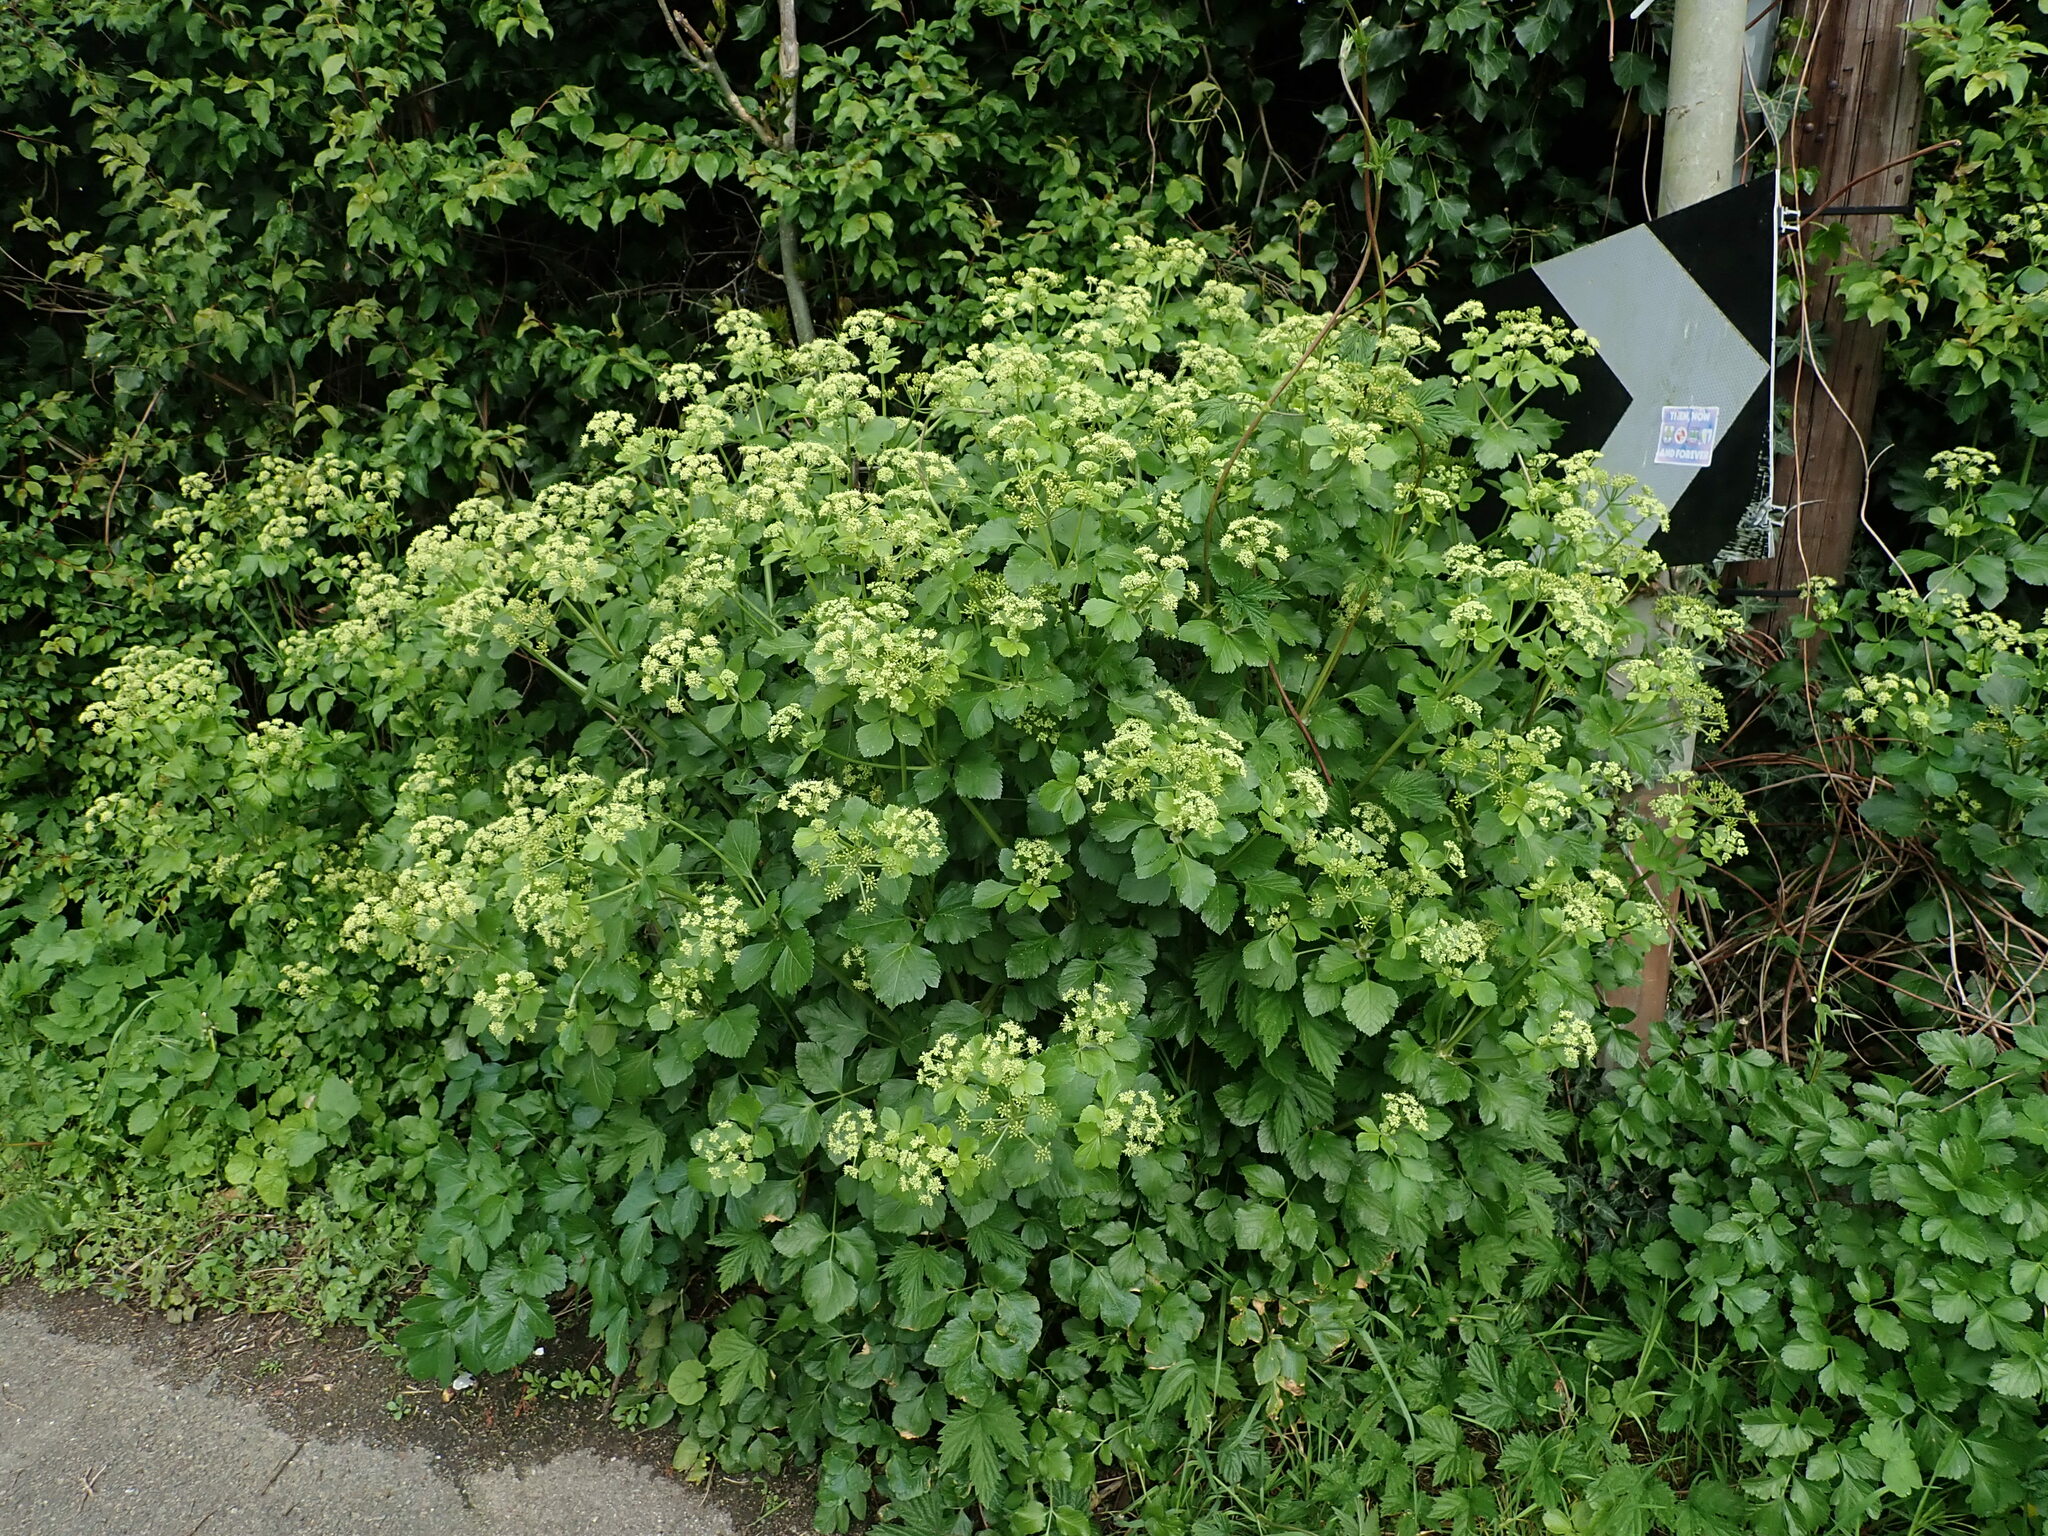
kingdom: Plantae
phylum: Tracheophyta
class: Magnoliopsida
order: Apiales
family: Apiaceae
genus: Smyrnium
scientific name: Smyrnium olusatrum
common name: Alexanders
